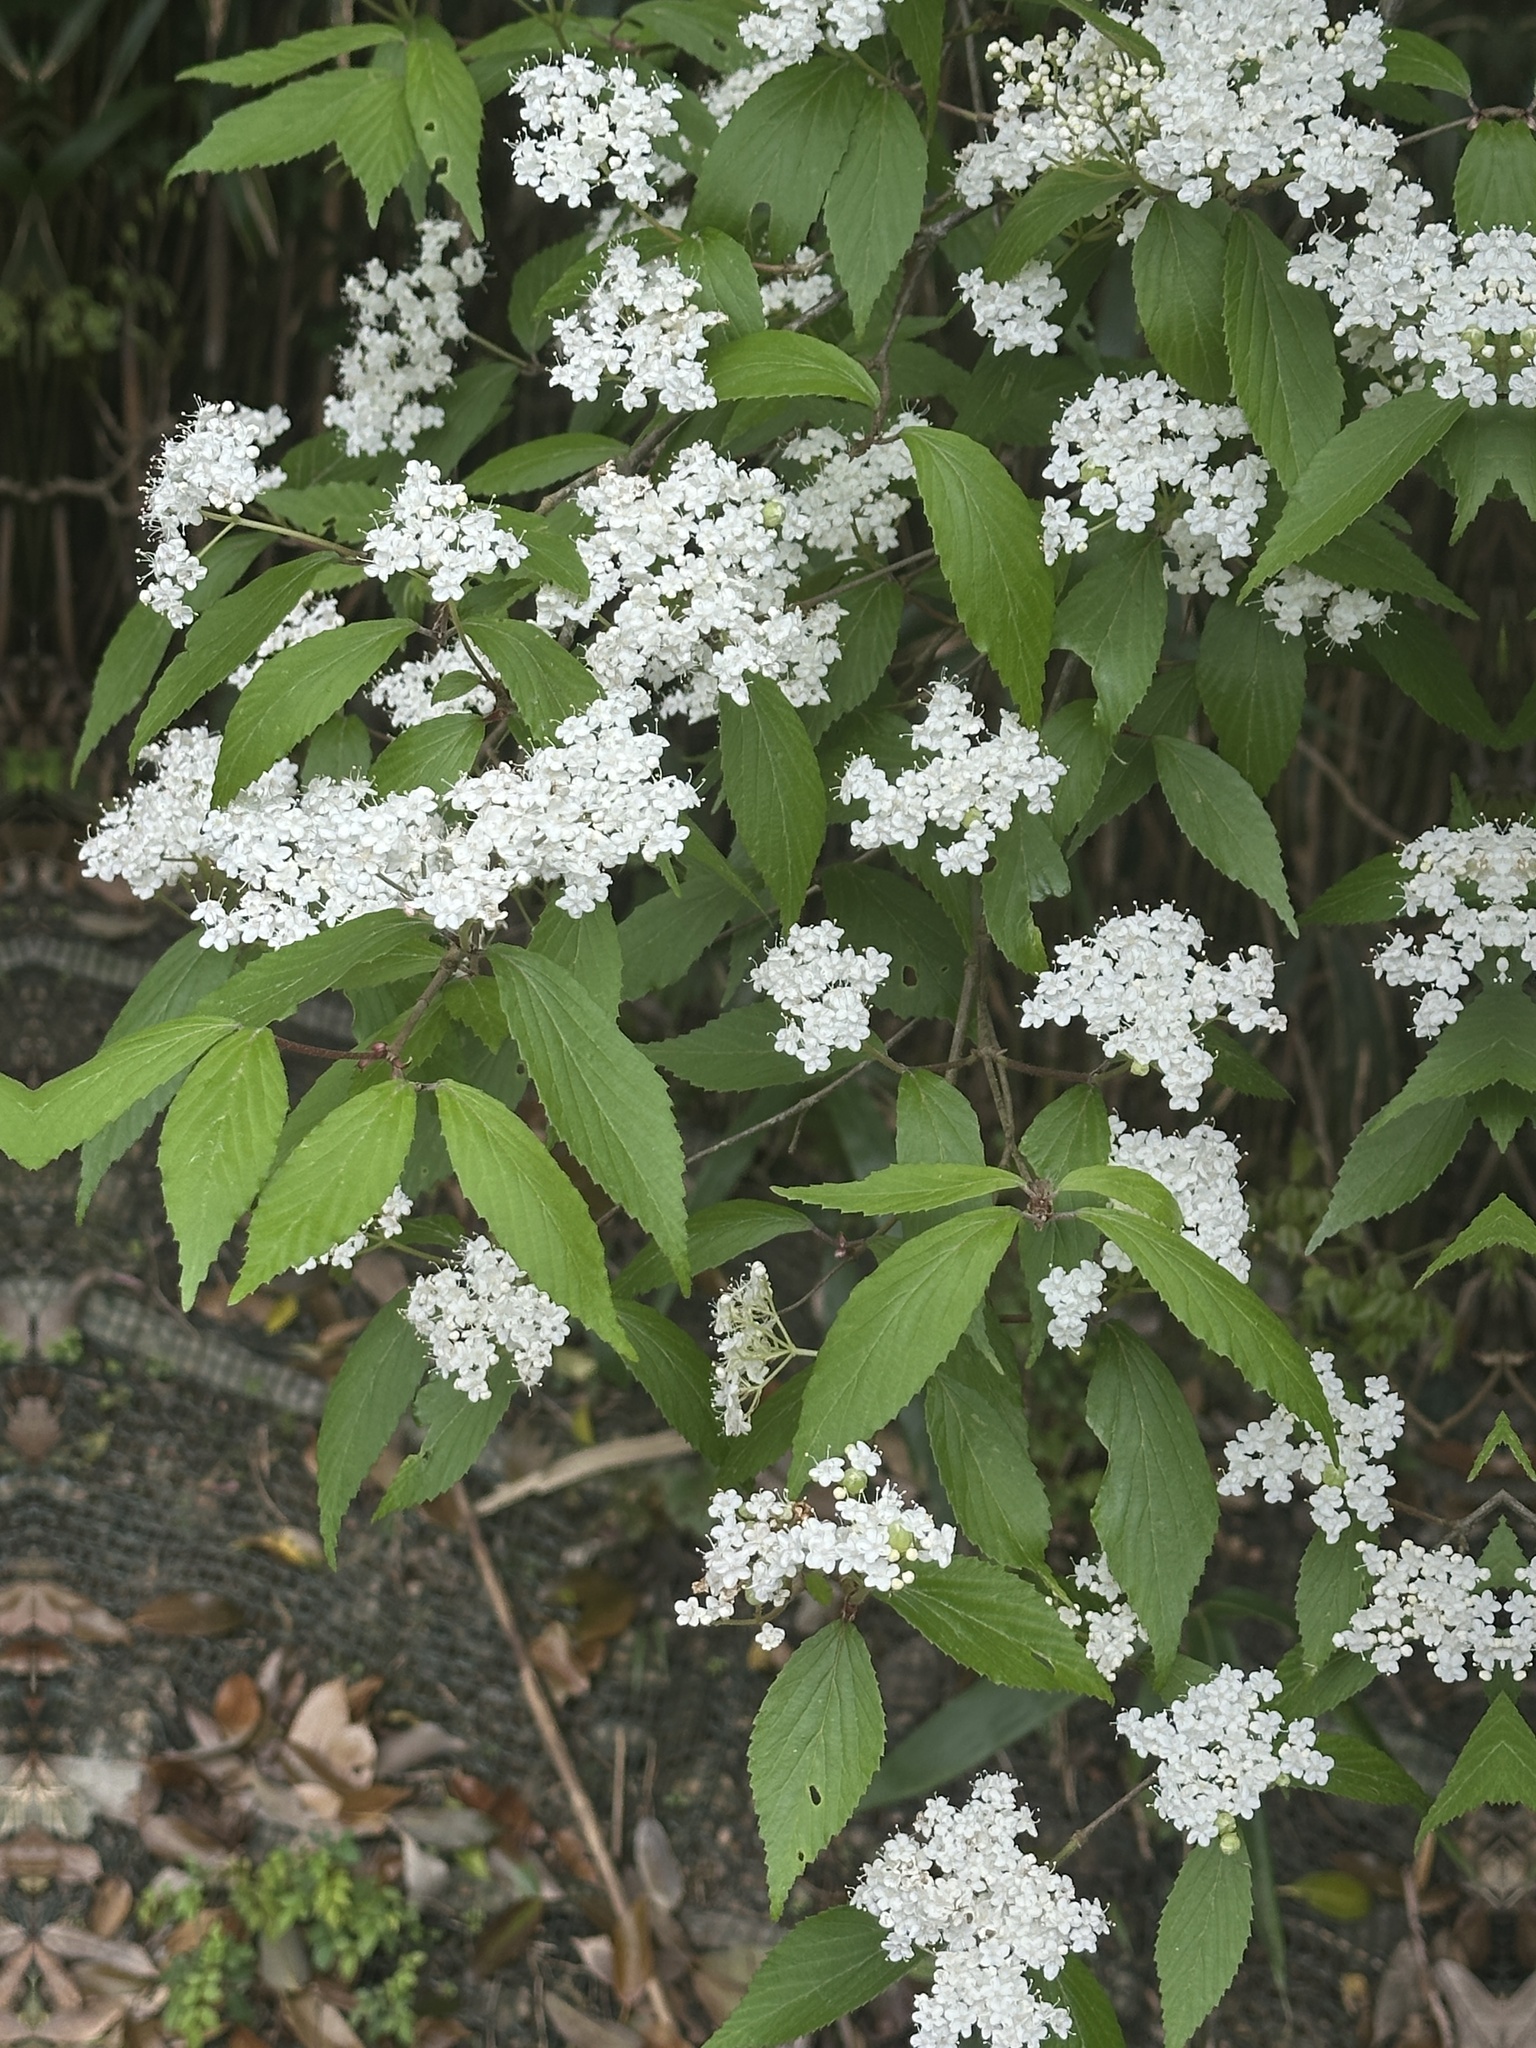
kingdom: Plantae
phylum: Tracheophyta
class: Magnoliopsida
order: Dipsacales
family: Viburnaceae
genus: Viburnum
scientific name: Viburnum erosum
